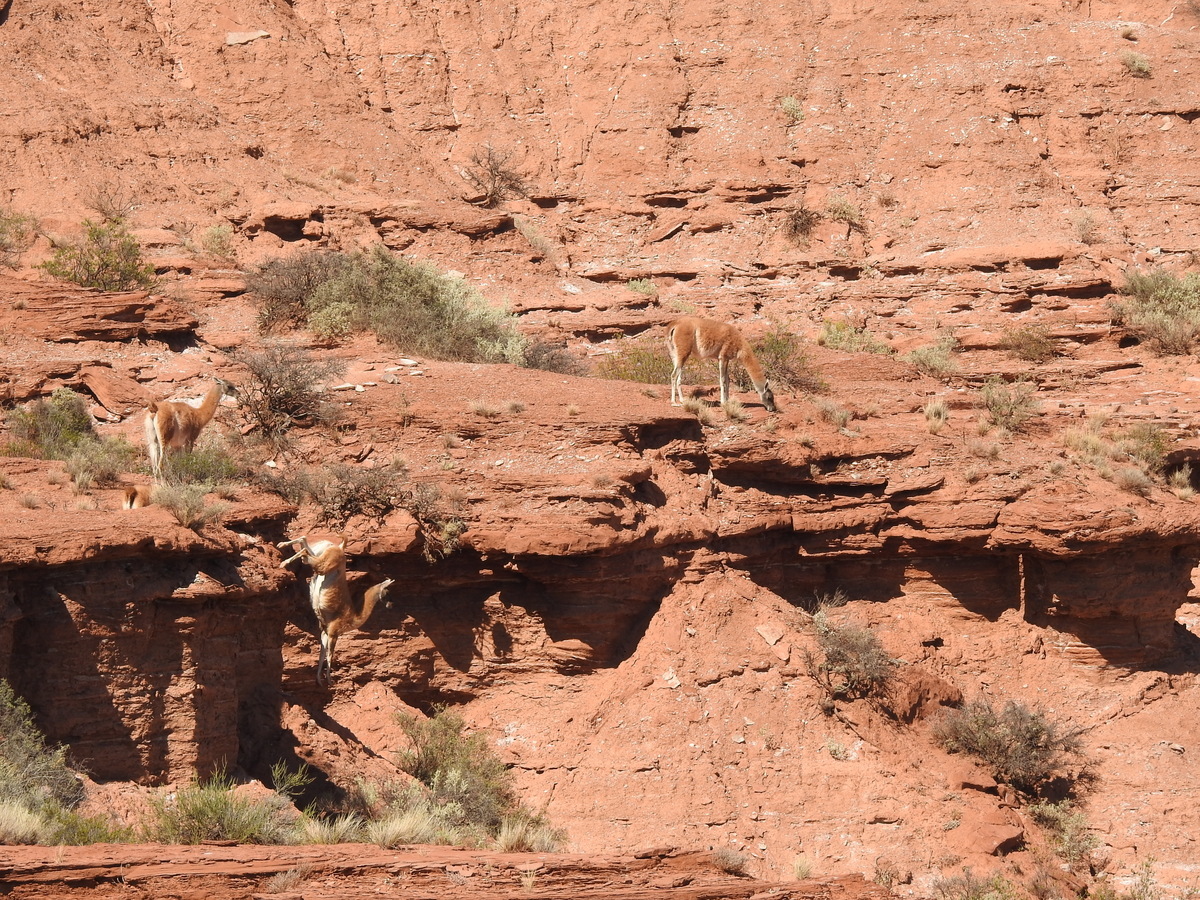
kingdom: Animalia
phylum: Chordata
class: Mammalia
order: Artiodactyla
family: Camelidae
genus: Lama
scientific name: Lama glama
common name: Llama
